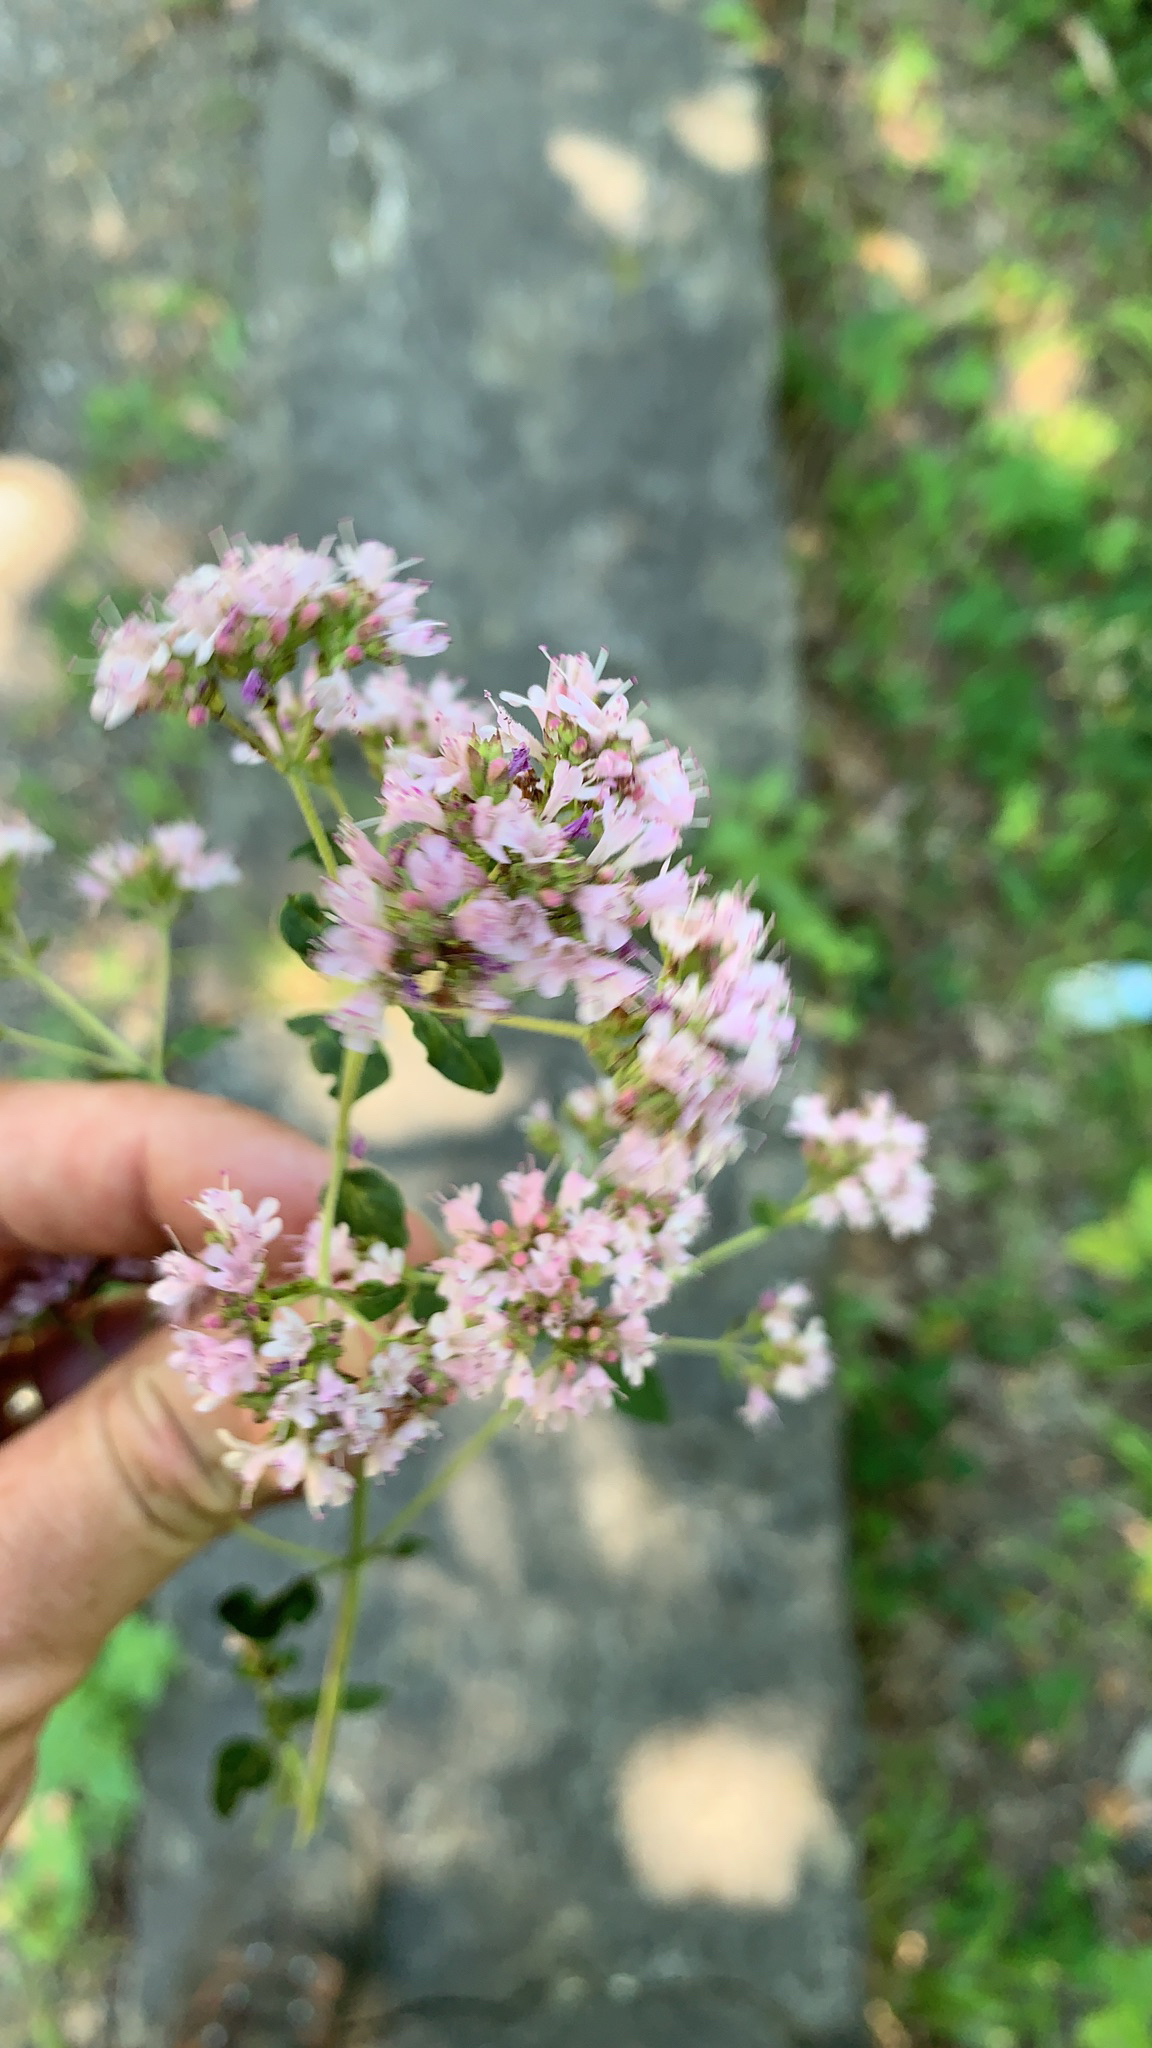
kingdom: Plantae
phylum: Tracheophyta
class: Magnoliopsida
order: Lamiales
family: Lamiaceae
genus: Origanum
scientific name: Origanum vulgare
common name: Wild marjoram
